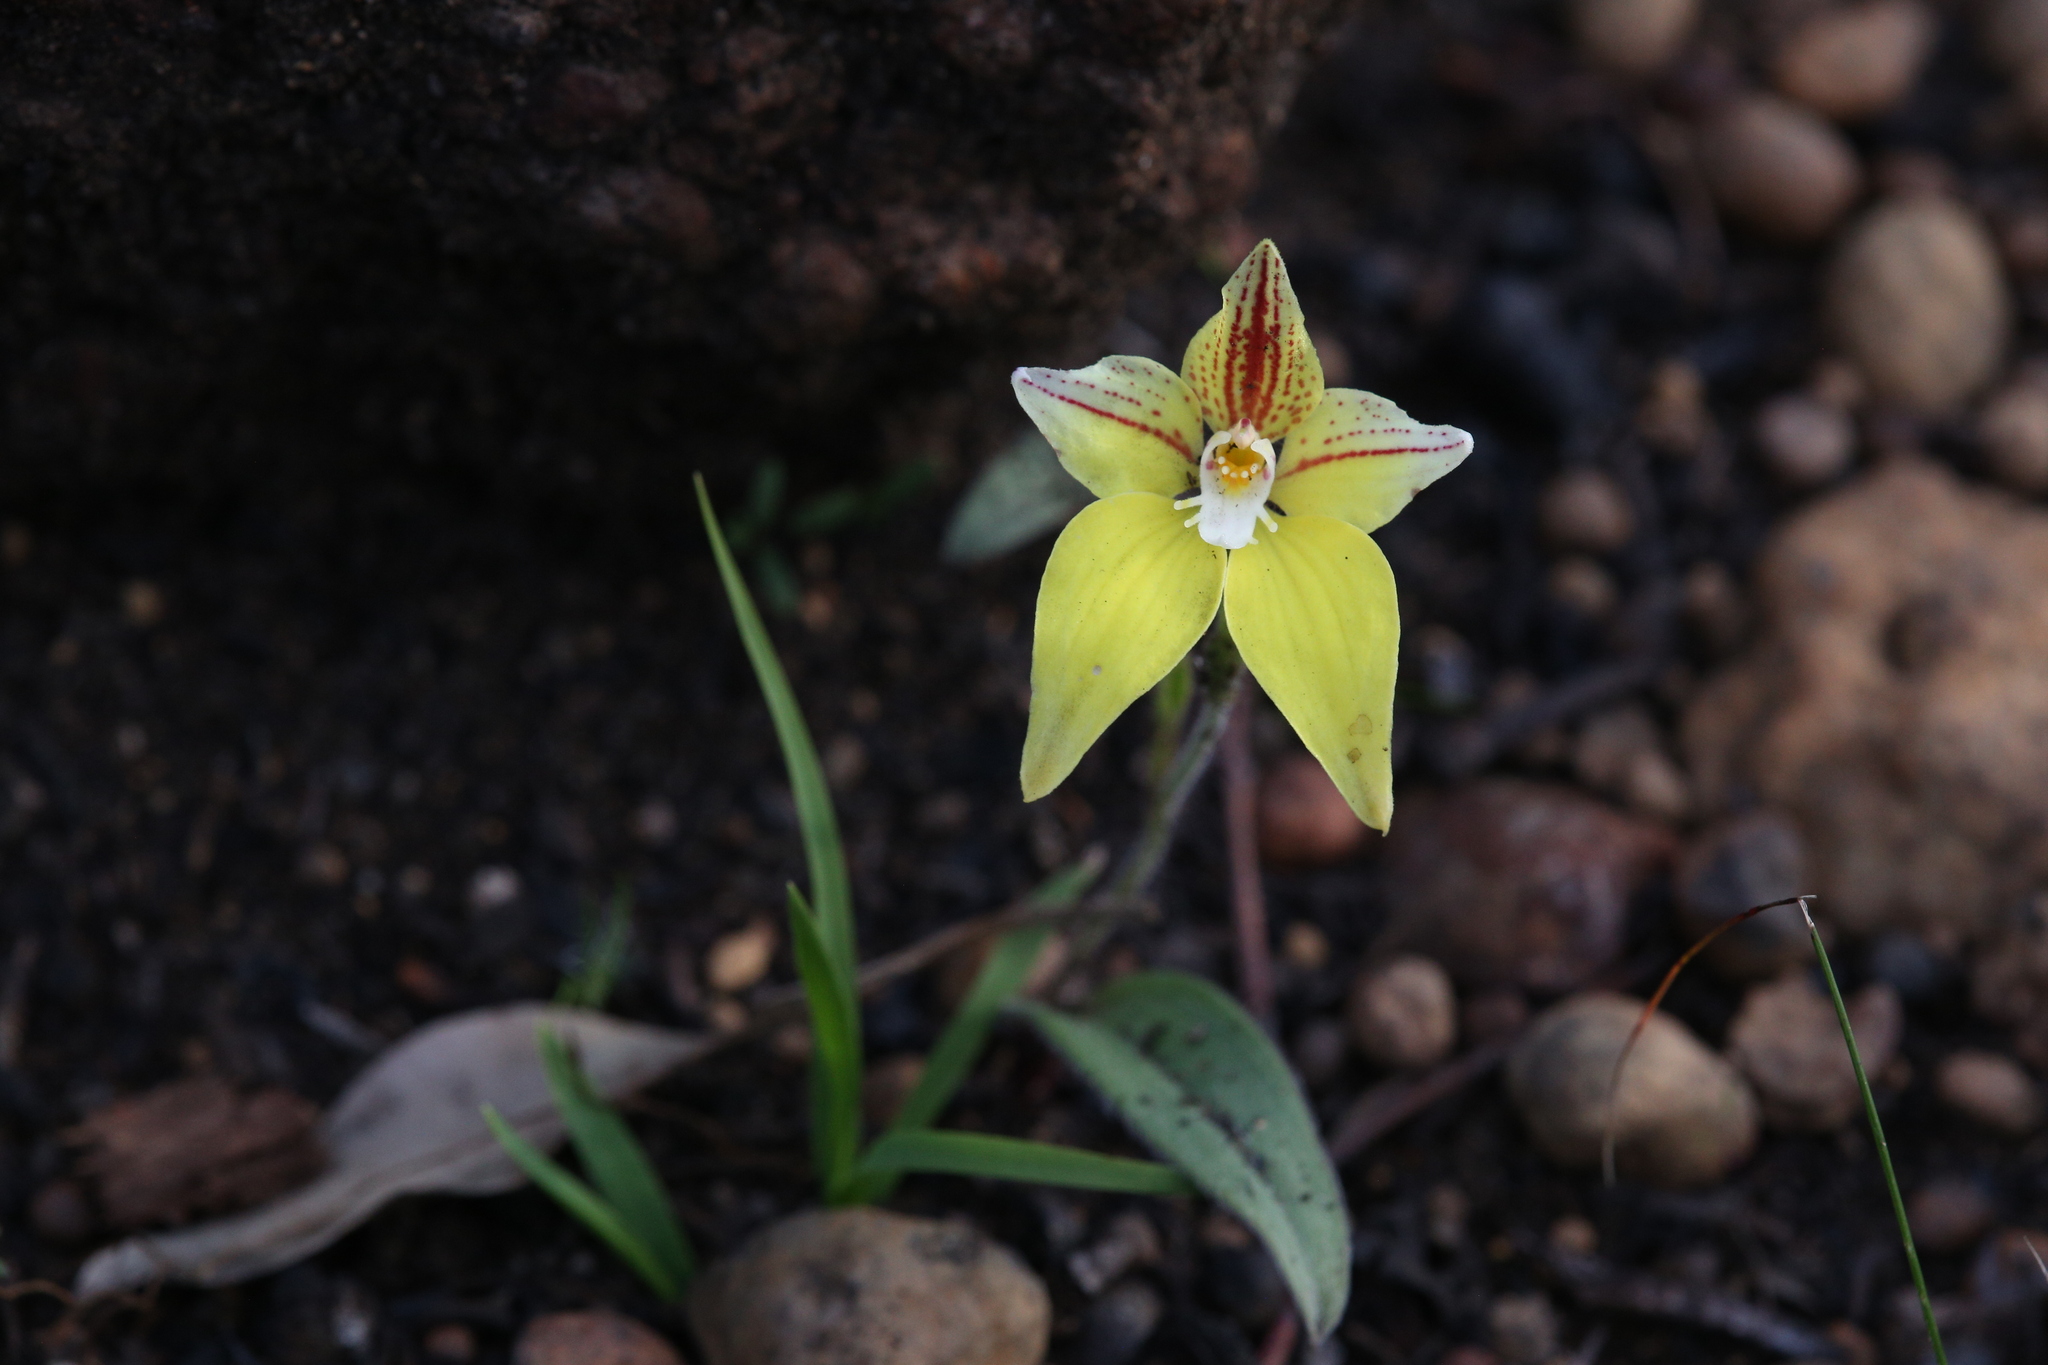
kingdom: Plantae
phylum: Tracheophyta
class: Liliopsida
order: Asparagales
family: Orchidaceae
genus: Caladenia
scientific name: Caladenia flava
